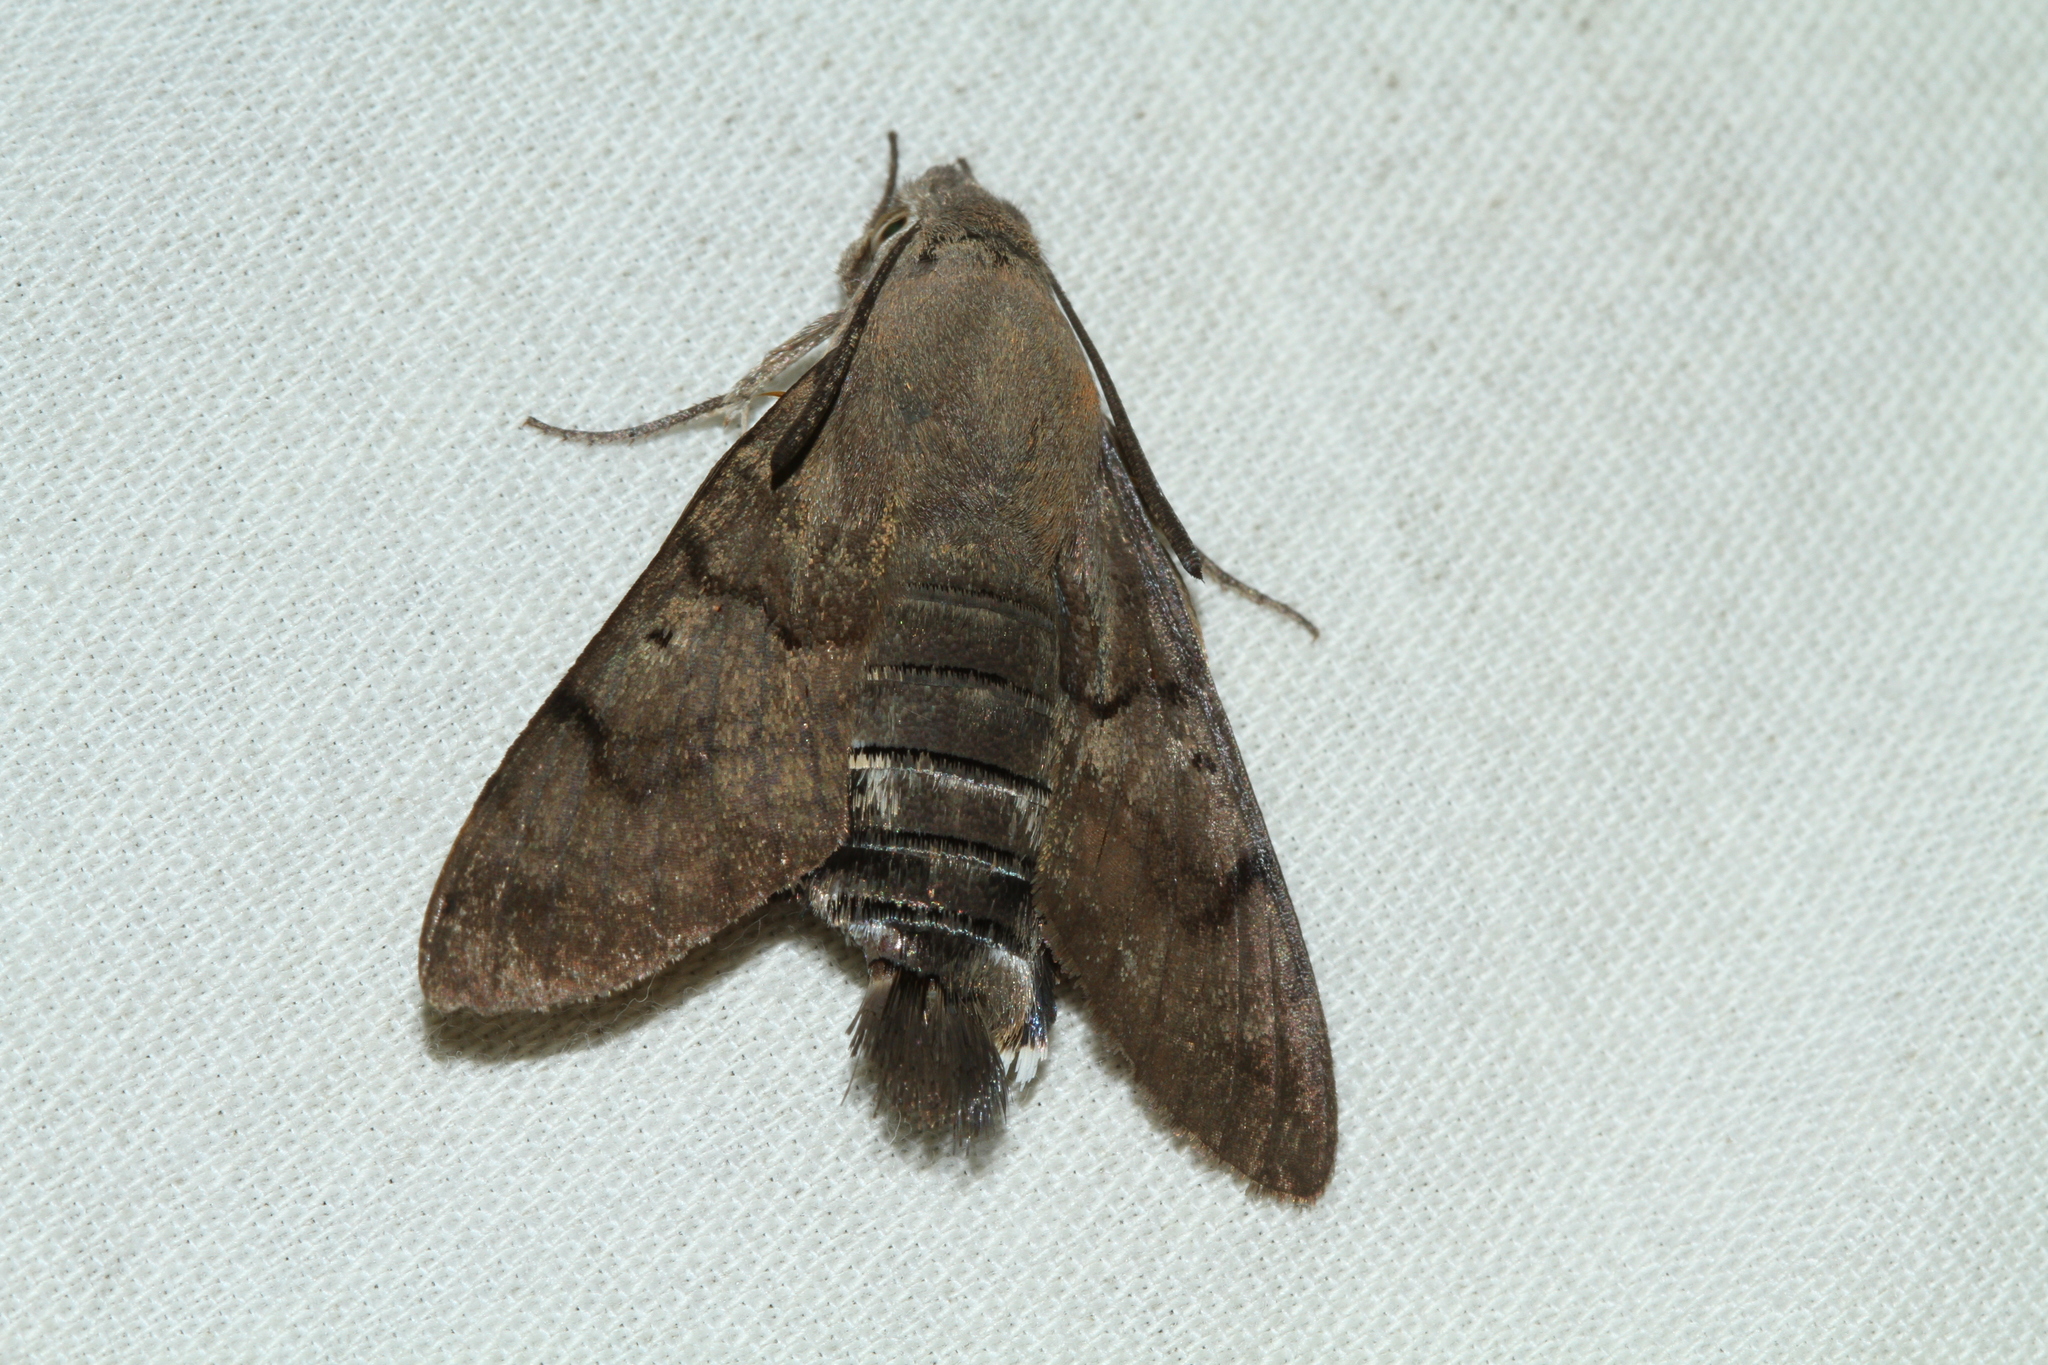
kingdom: Animalia
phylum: Arthropoda
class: Insecta
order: Lepidoptera
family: Sphingidae
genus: Macroglossum
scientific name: Macroglossum stellatarum
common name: Humming-bird hawk-moth
